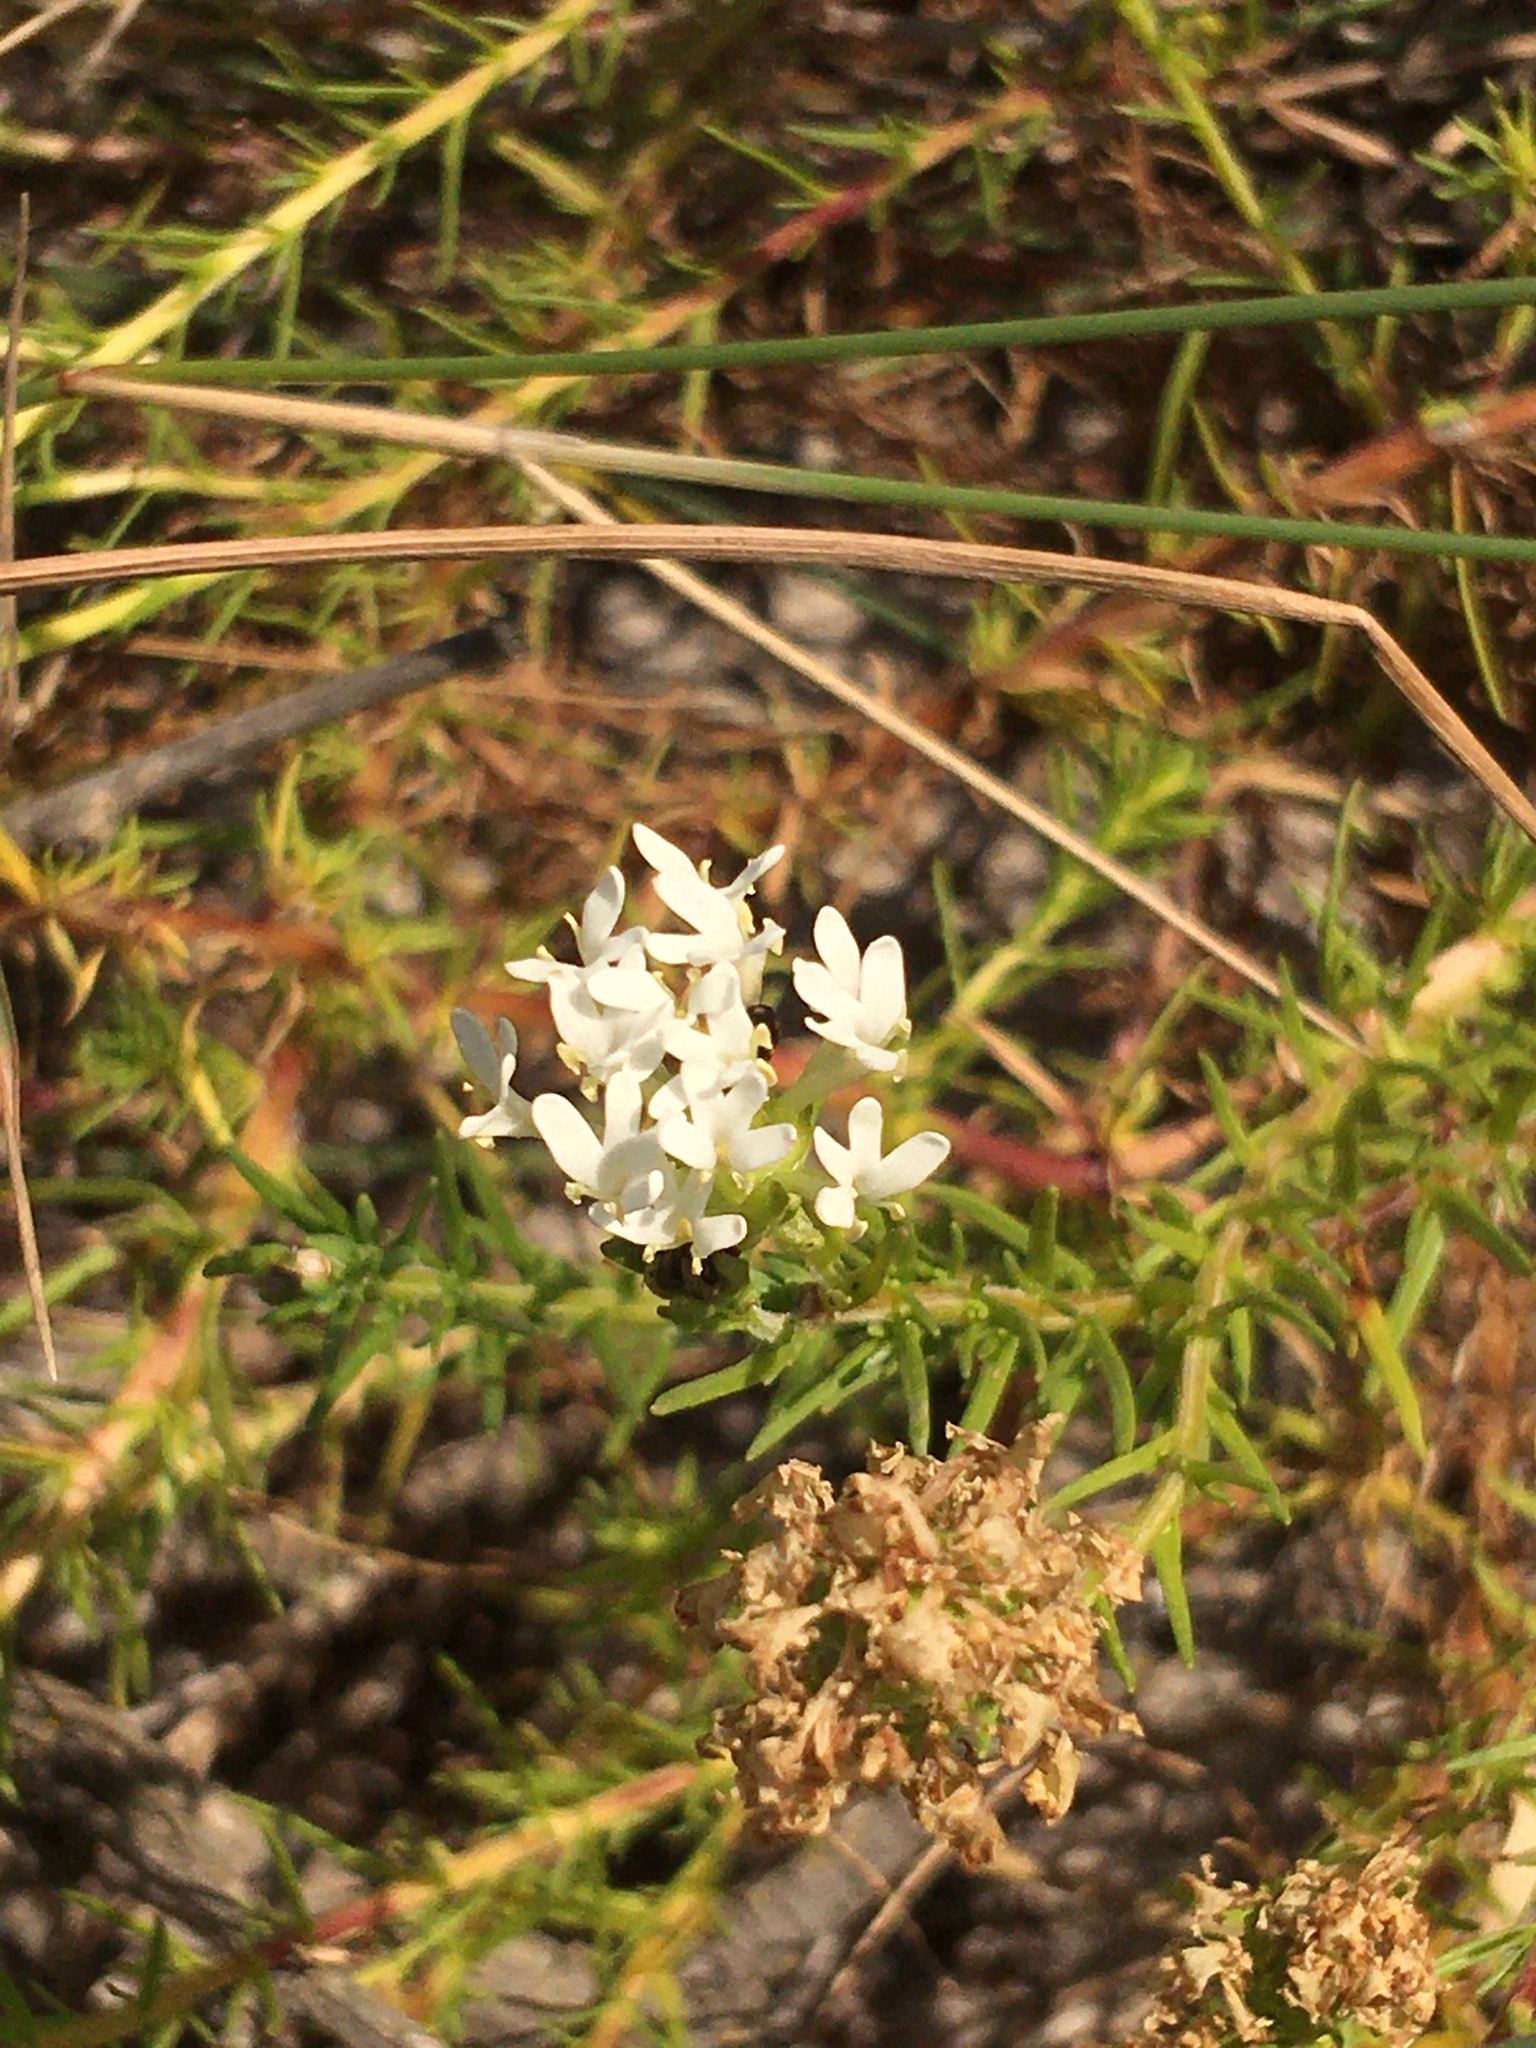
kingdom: Plantae
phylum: Tracheophyta
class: Magnoliopsida
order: Lamiales
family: Scrophulariaceae
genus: Dischisma
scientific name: Dischisma ciliatum
